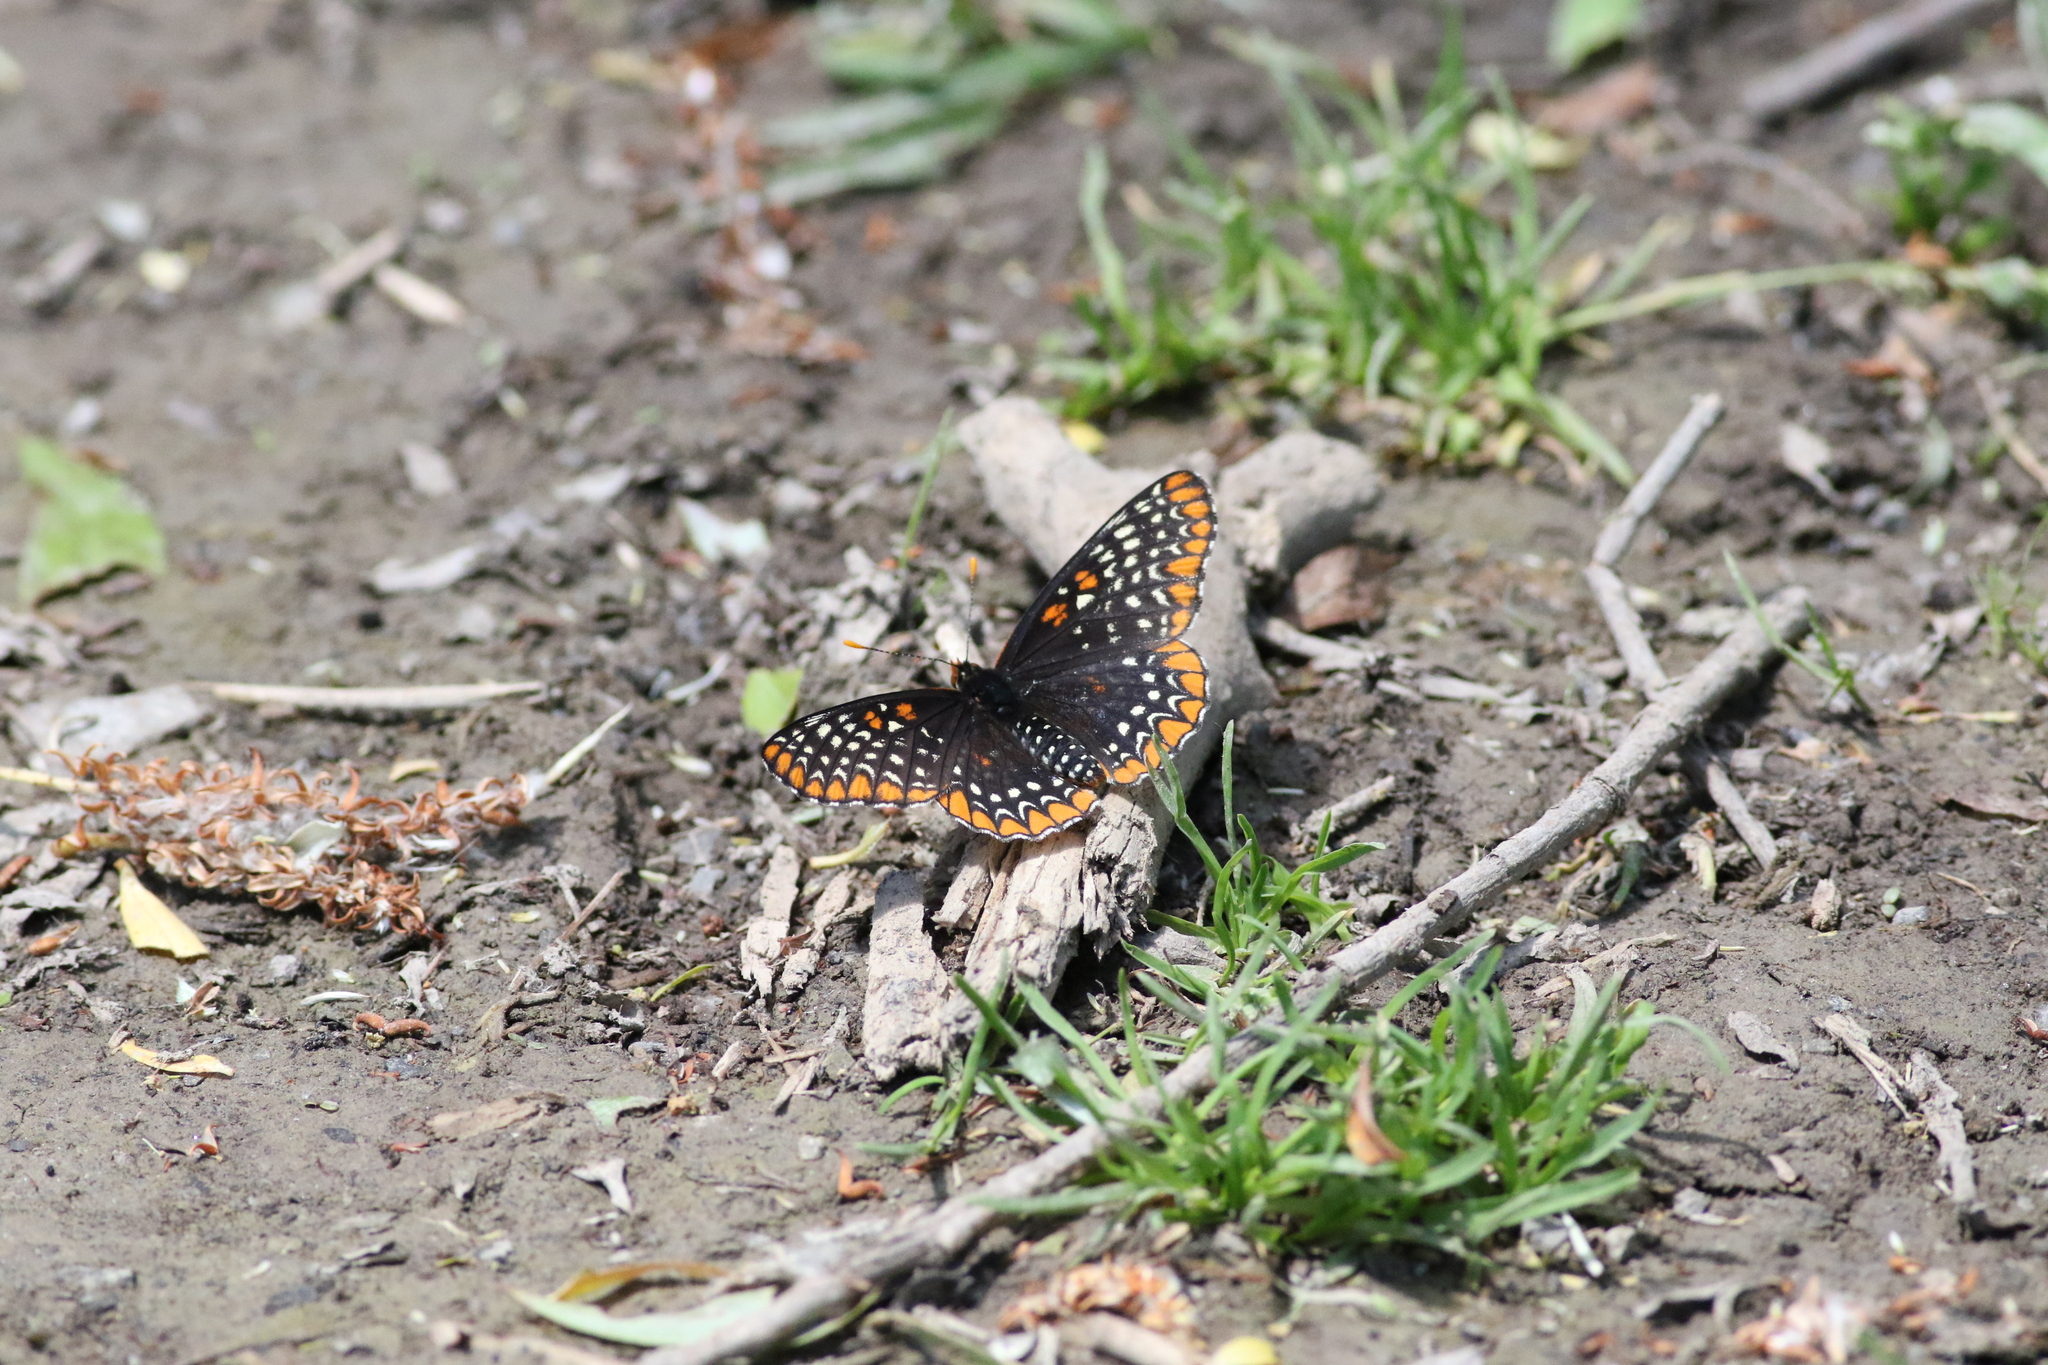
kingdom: Animalia
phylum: Arthropoda
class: Insecta
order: Lepidoptera
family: Nymphalidae
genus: Euphydryas
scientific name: Euphydryas phaeton
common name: Baltimore checkerspot
